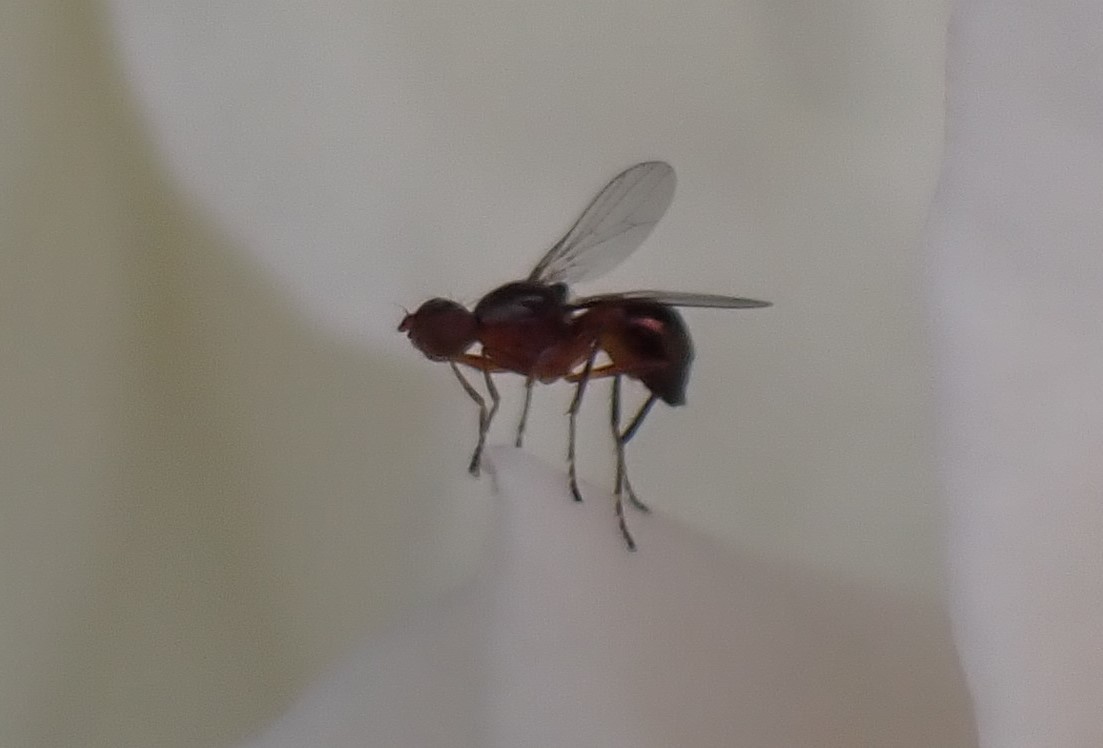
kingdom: Animalia
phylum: Arthropoda
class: Insecta
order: Diptera
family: Sepsidae
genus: Lasionemopoda
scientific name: Lasionemopoda hirsuta
